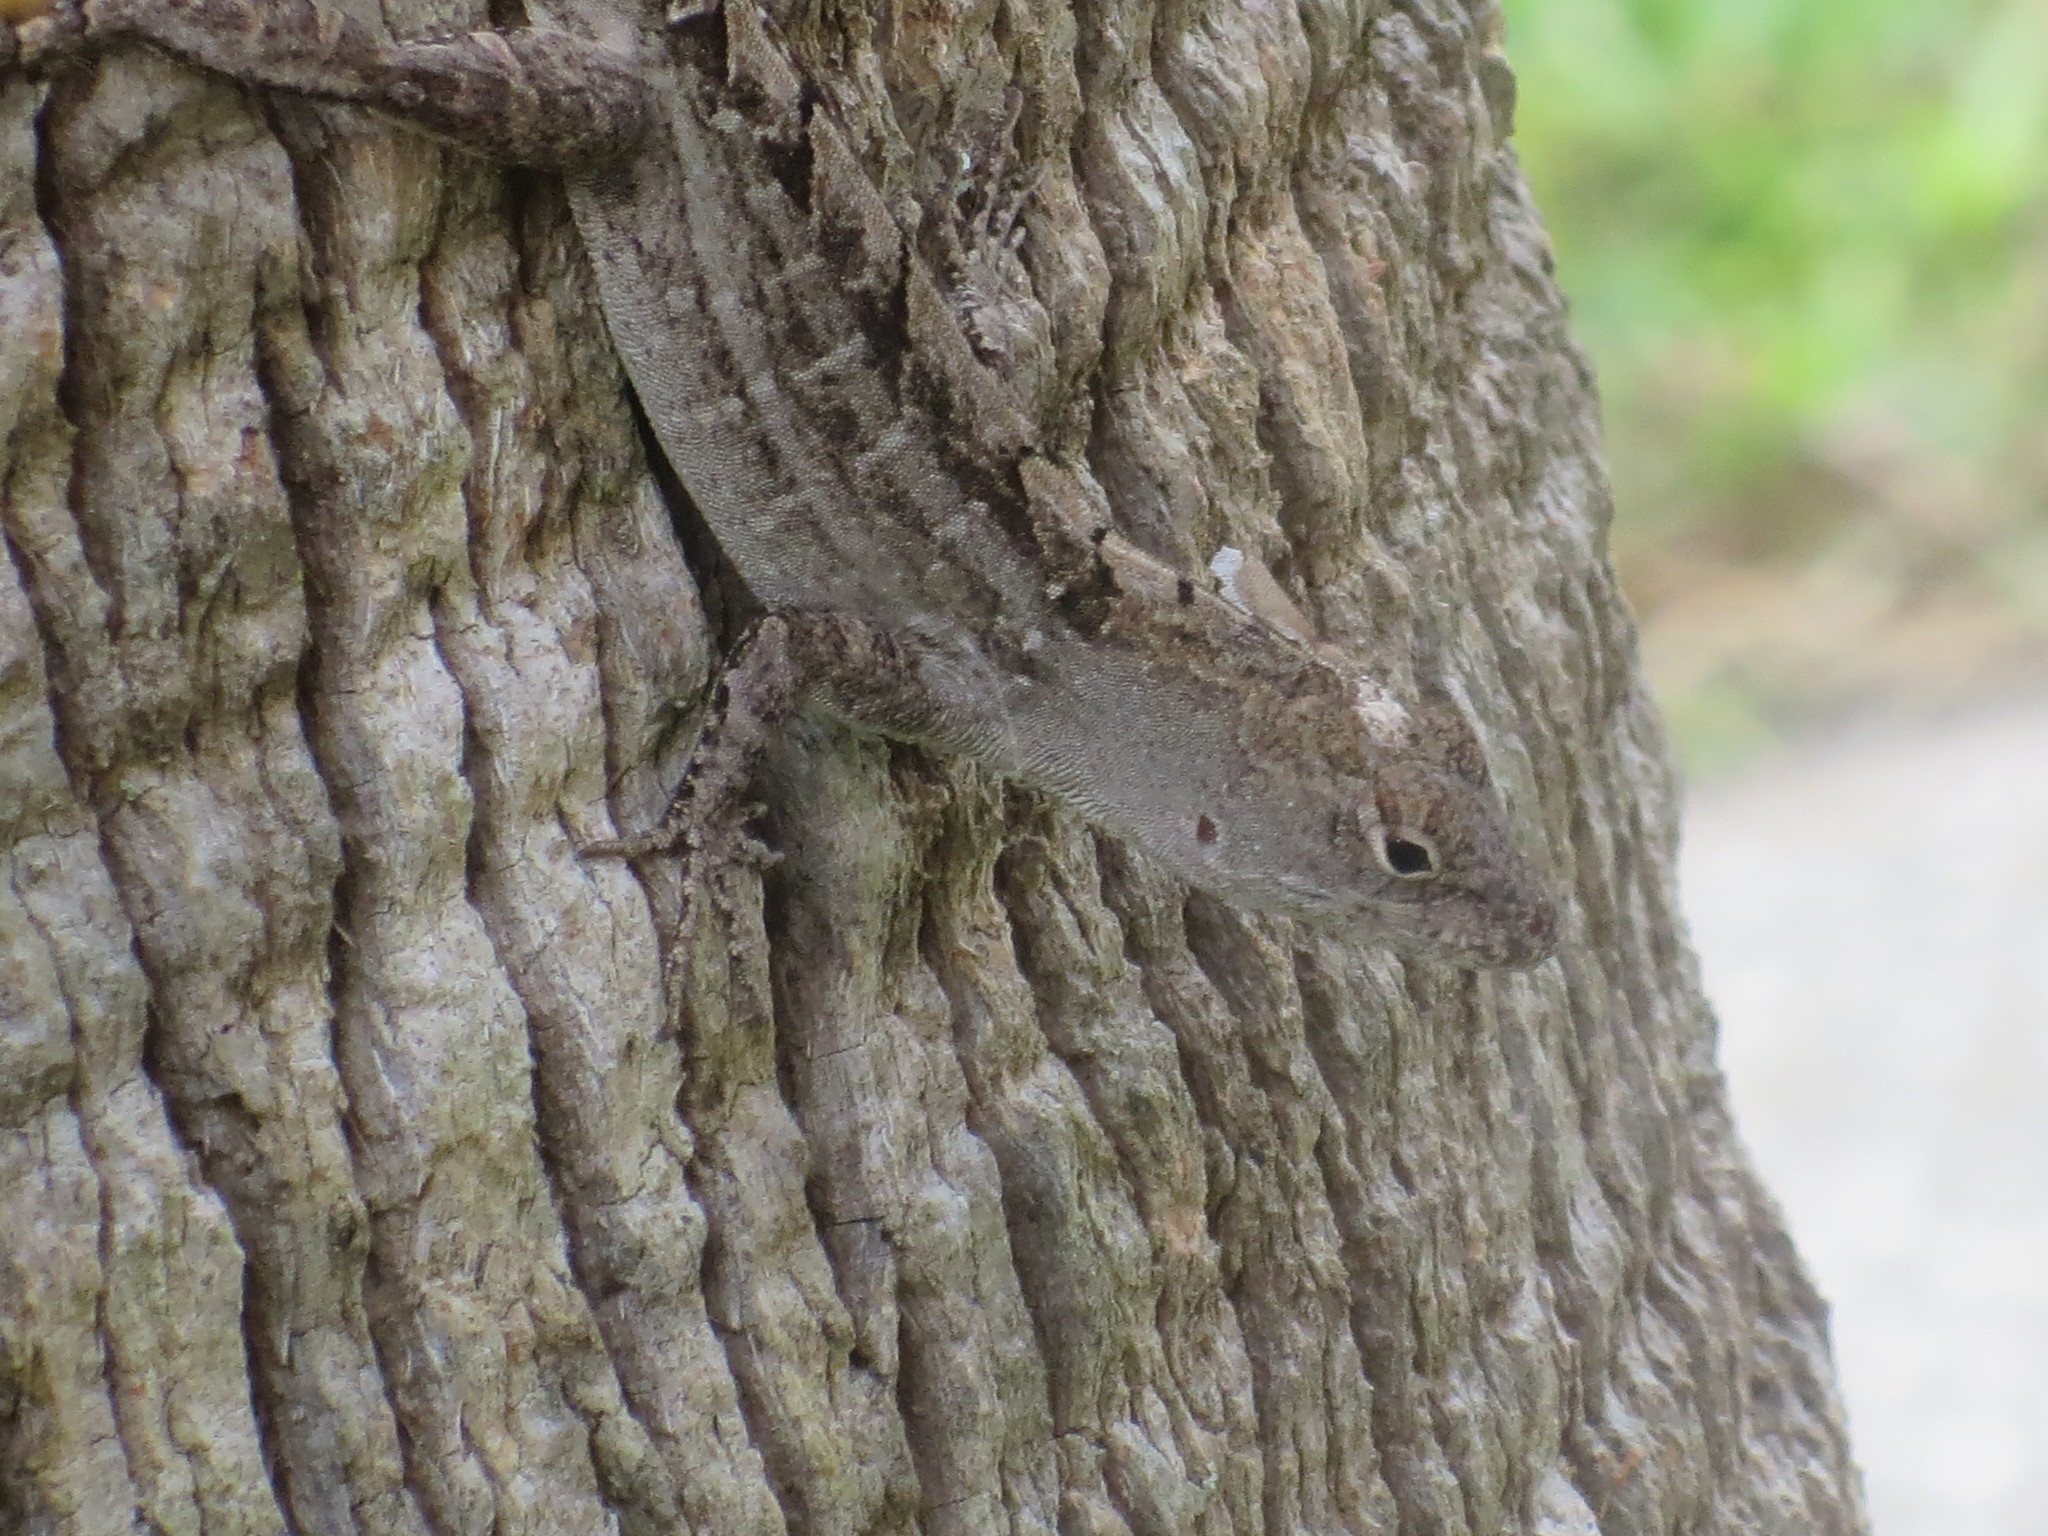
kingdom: Animalia
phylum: Chordata
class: Squamata
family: Dactyloidae
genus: Anolis
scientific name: Anolis sagrei
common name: Brown anole
